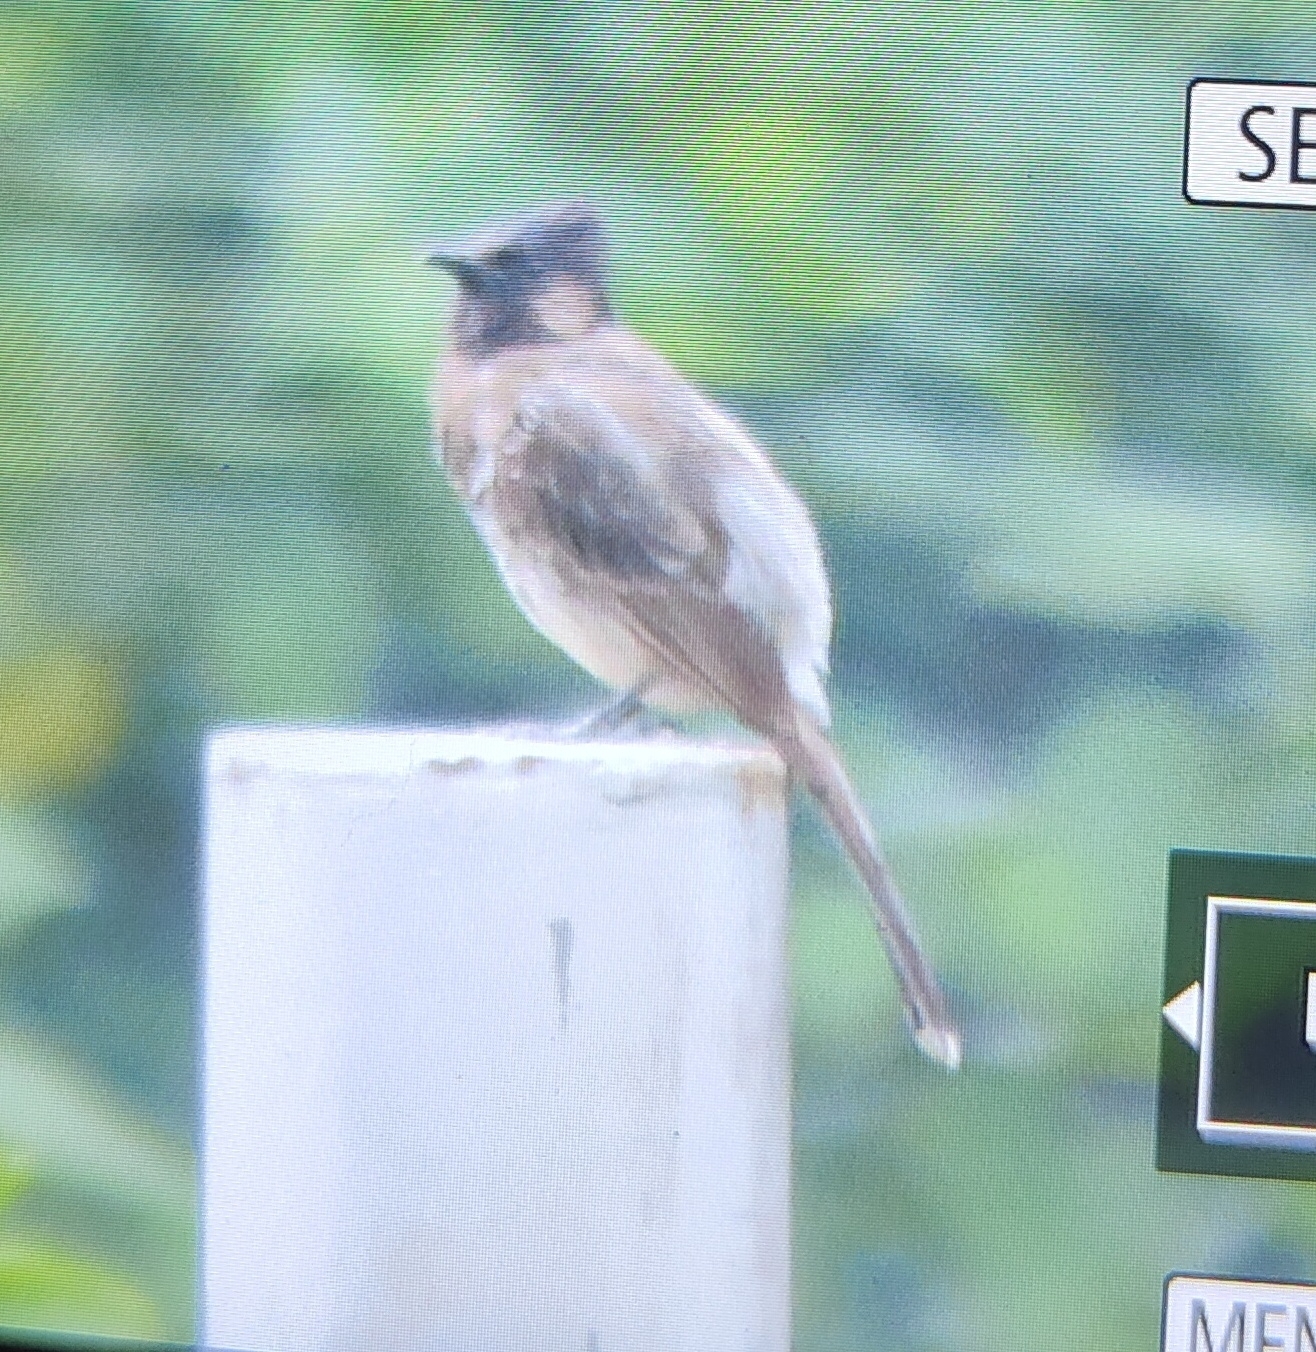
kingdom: Animalia
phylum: Chordata
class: Aves
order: Passeriformes
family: Pycnonotidae
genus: Pycnonotus
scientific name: Pycnonotus cafer
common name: Red-vented bulbul
